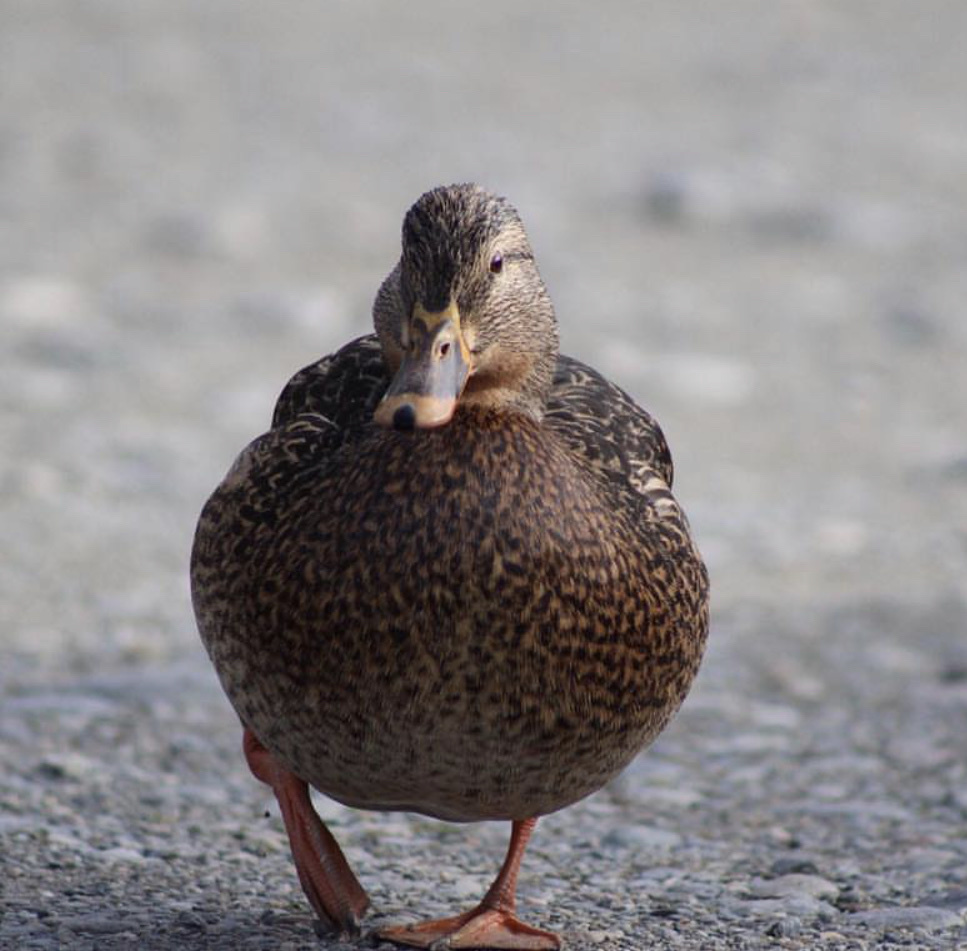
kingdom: Animalia
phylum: Chordata
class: Aves
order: Anseriformes
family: Anatidae
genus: Anas
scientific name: Anas platyrhynchos
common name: Mallard
